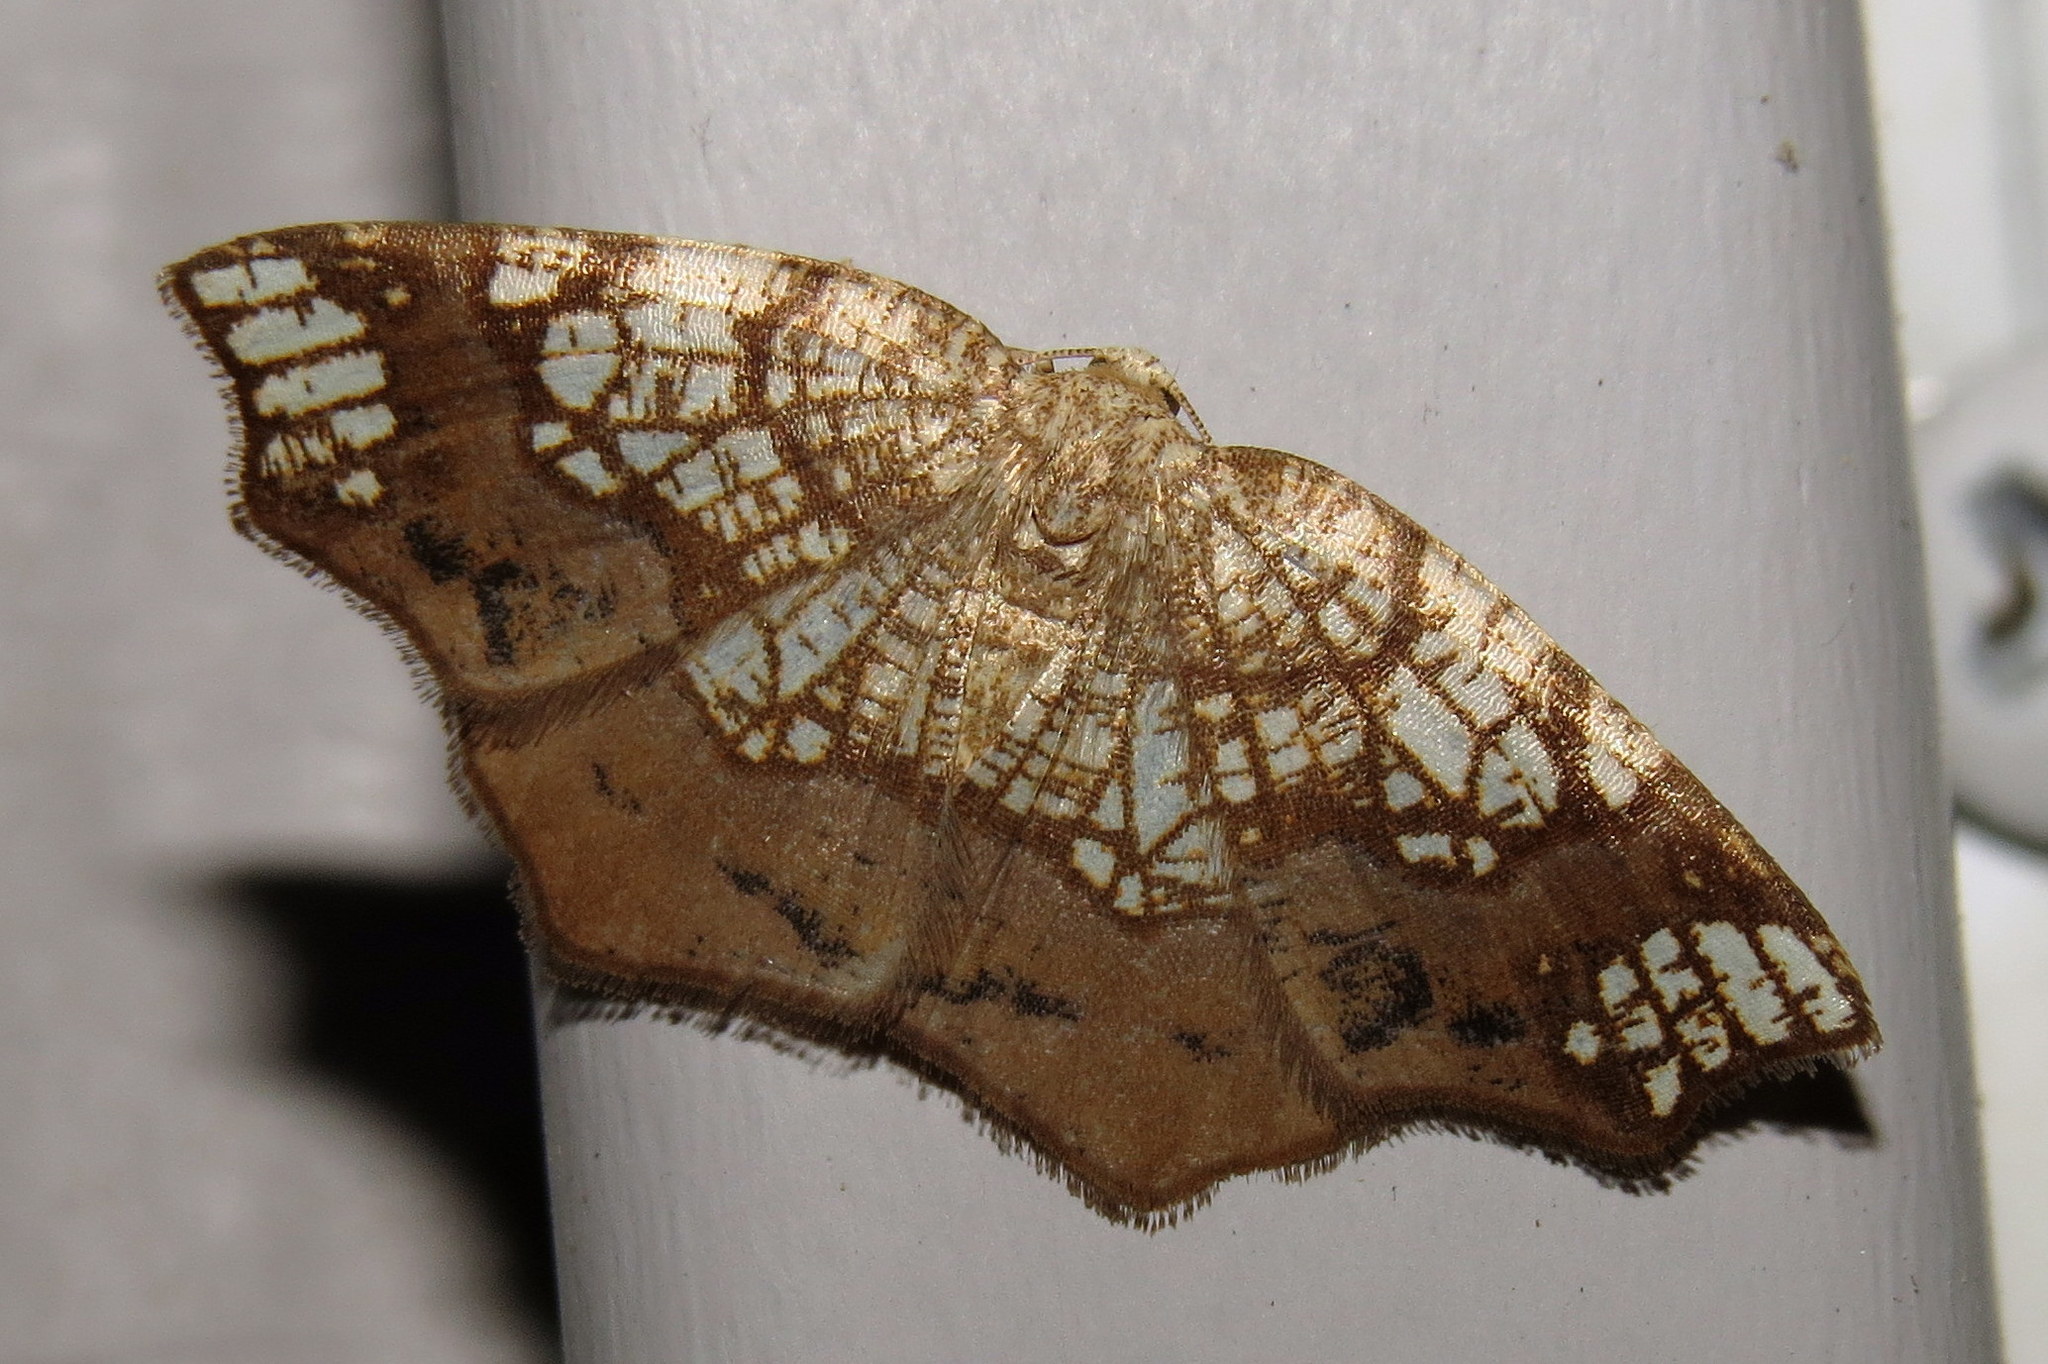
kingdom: Animalia
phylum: Arthropoda
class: Insecta
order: Lepidoptera
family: Geometridae
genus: Nematocampa
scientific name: Nematocampa resistaria
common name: Horned spanworm moth
